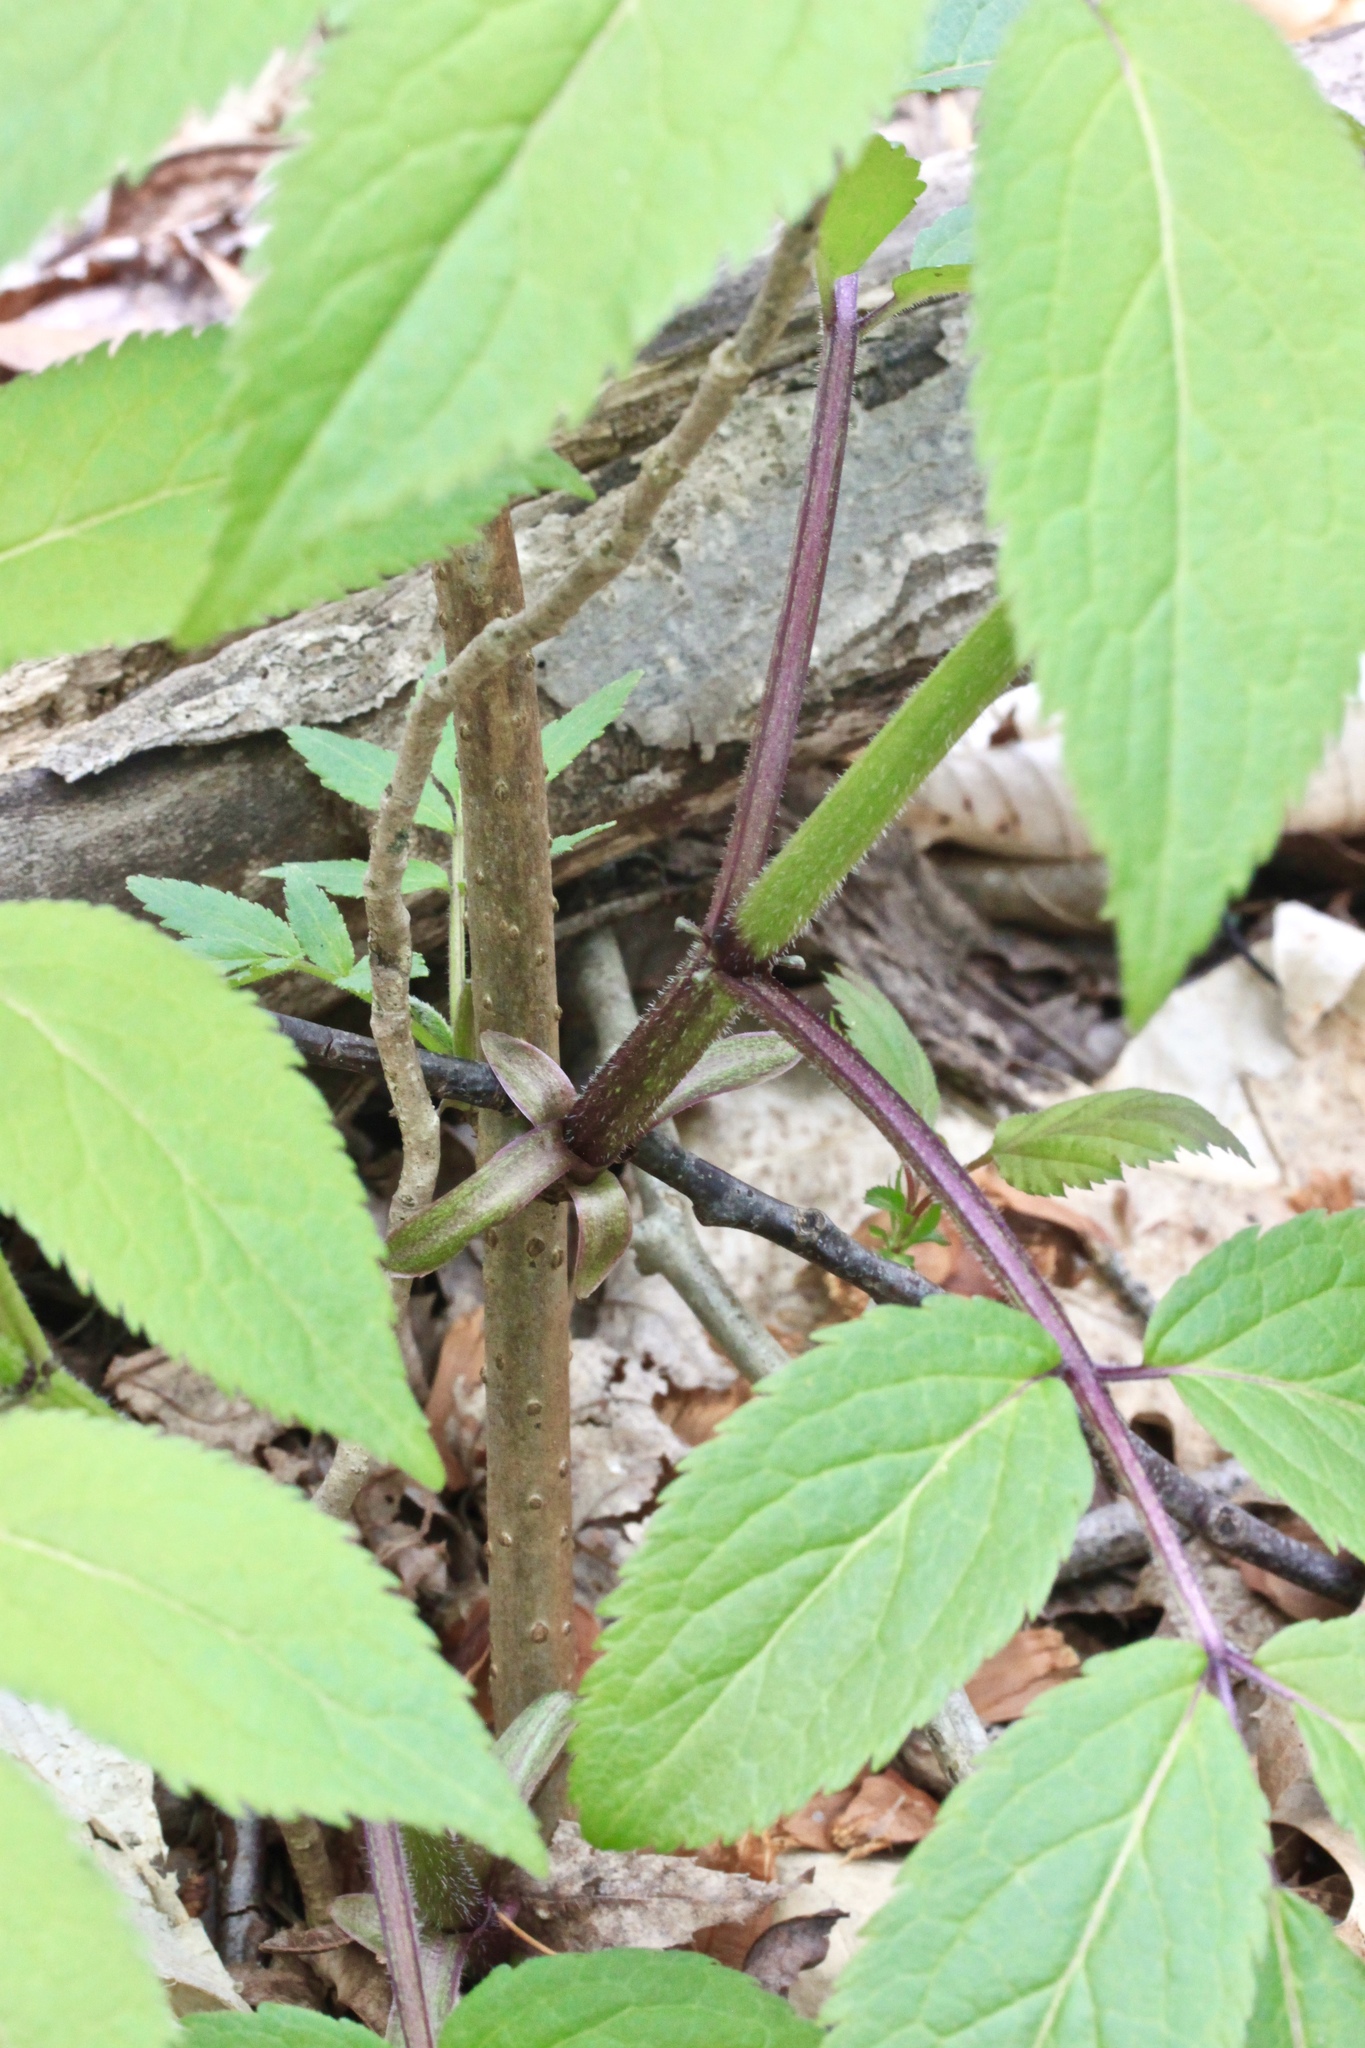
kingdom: Plantae
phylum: Tracheophyta
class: Magnoliopsida
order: Dipsacales
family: Viburnaceae
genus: Sambucus
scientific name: Sambucus canadensis
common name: American elder
